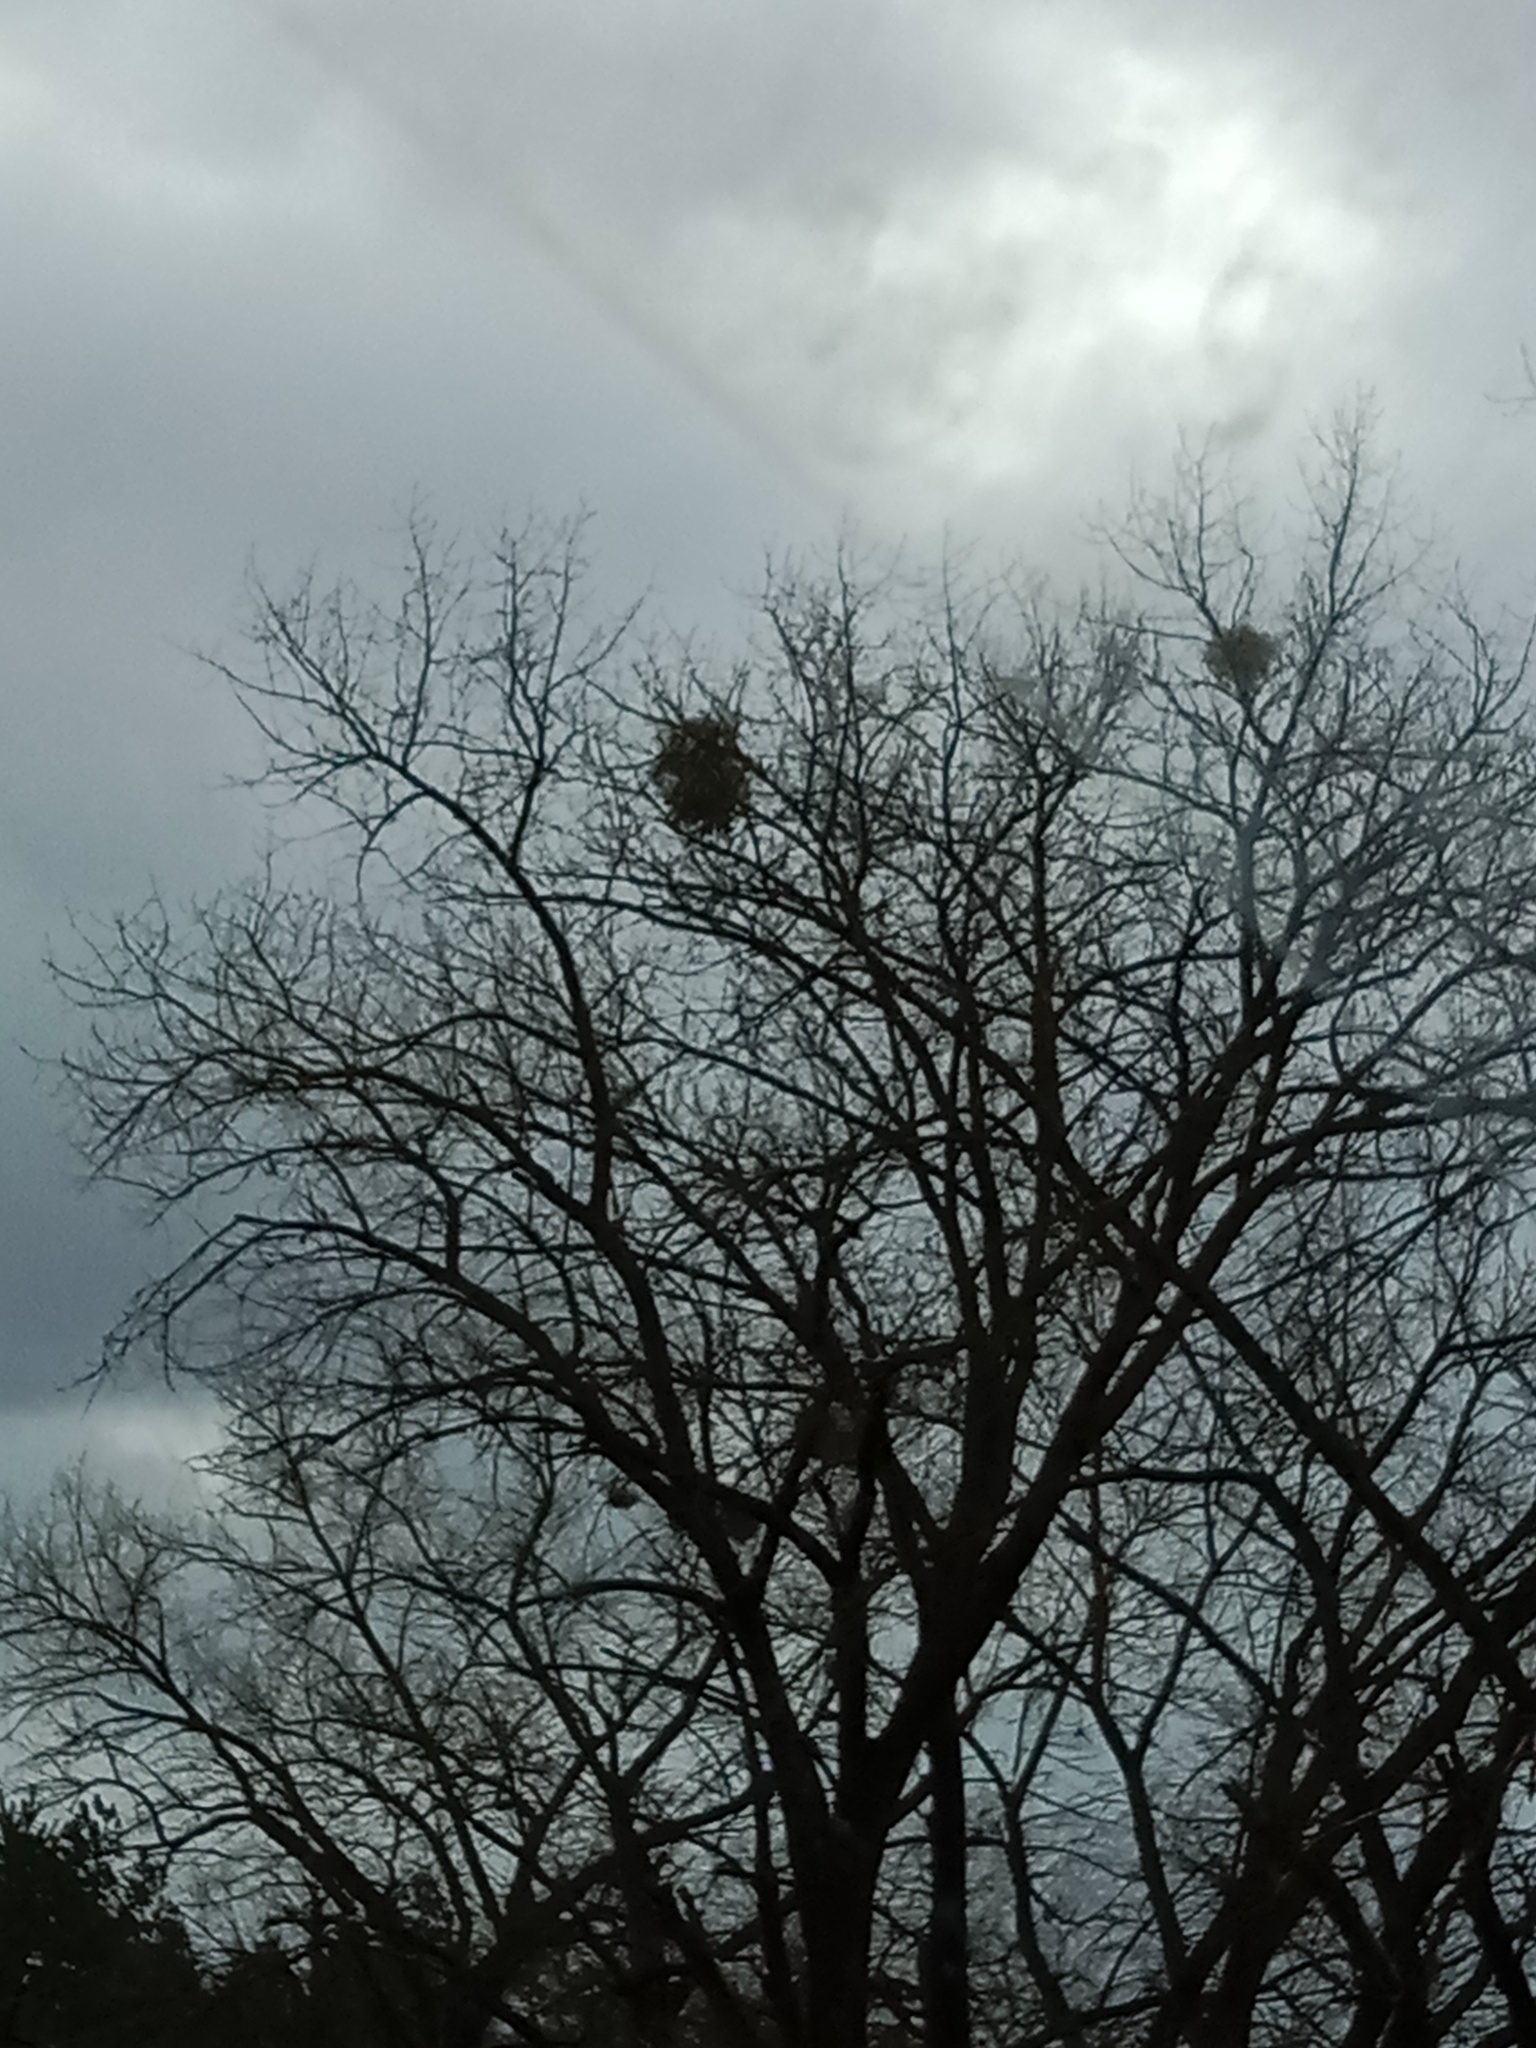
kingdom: Plantae
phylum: Tracheophyta
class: Magnoliopsida
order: Santalales
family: Viscaceae
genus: Viscum
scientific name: Viscum album
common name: Mistletoe
